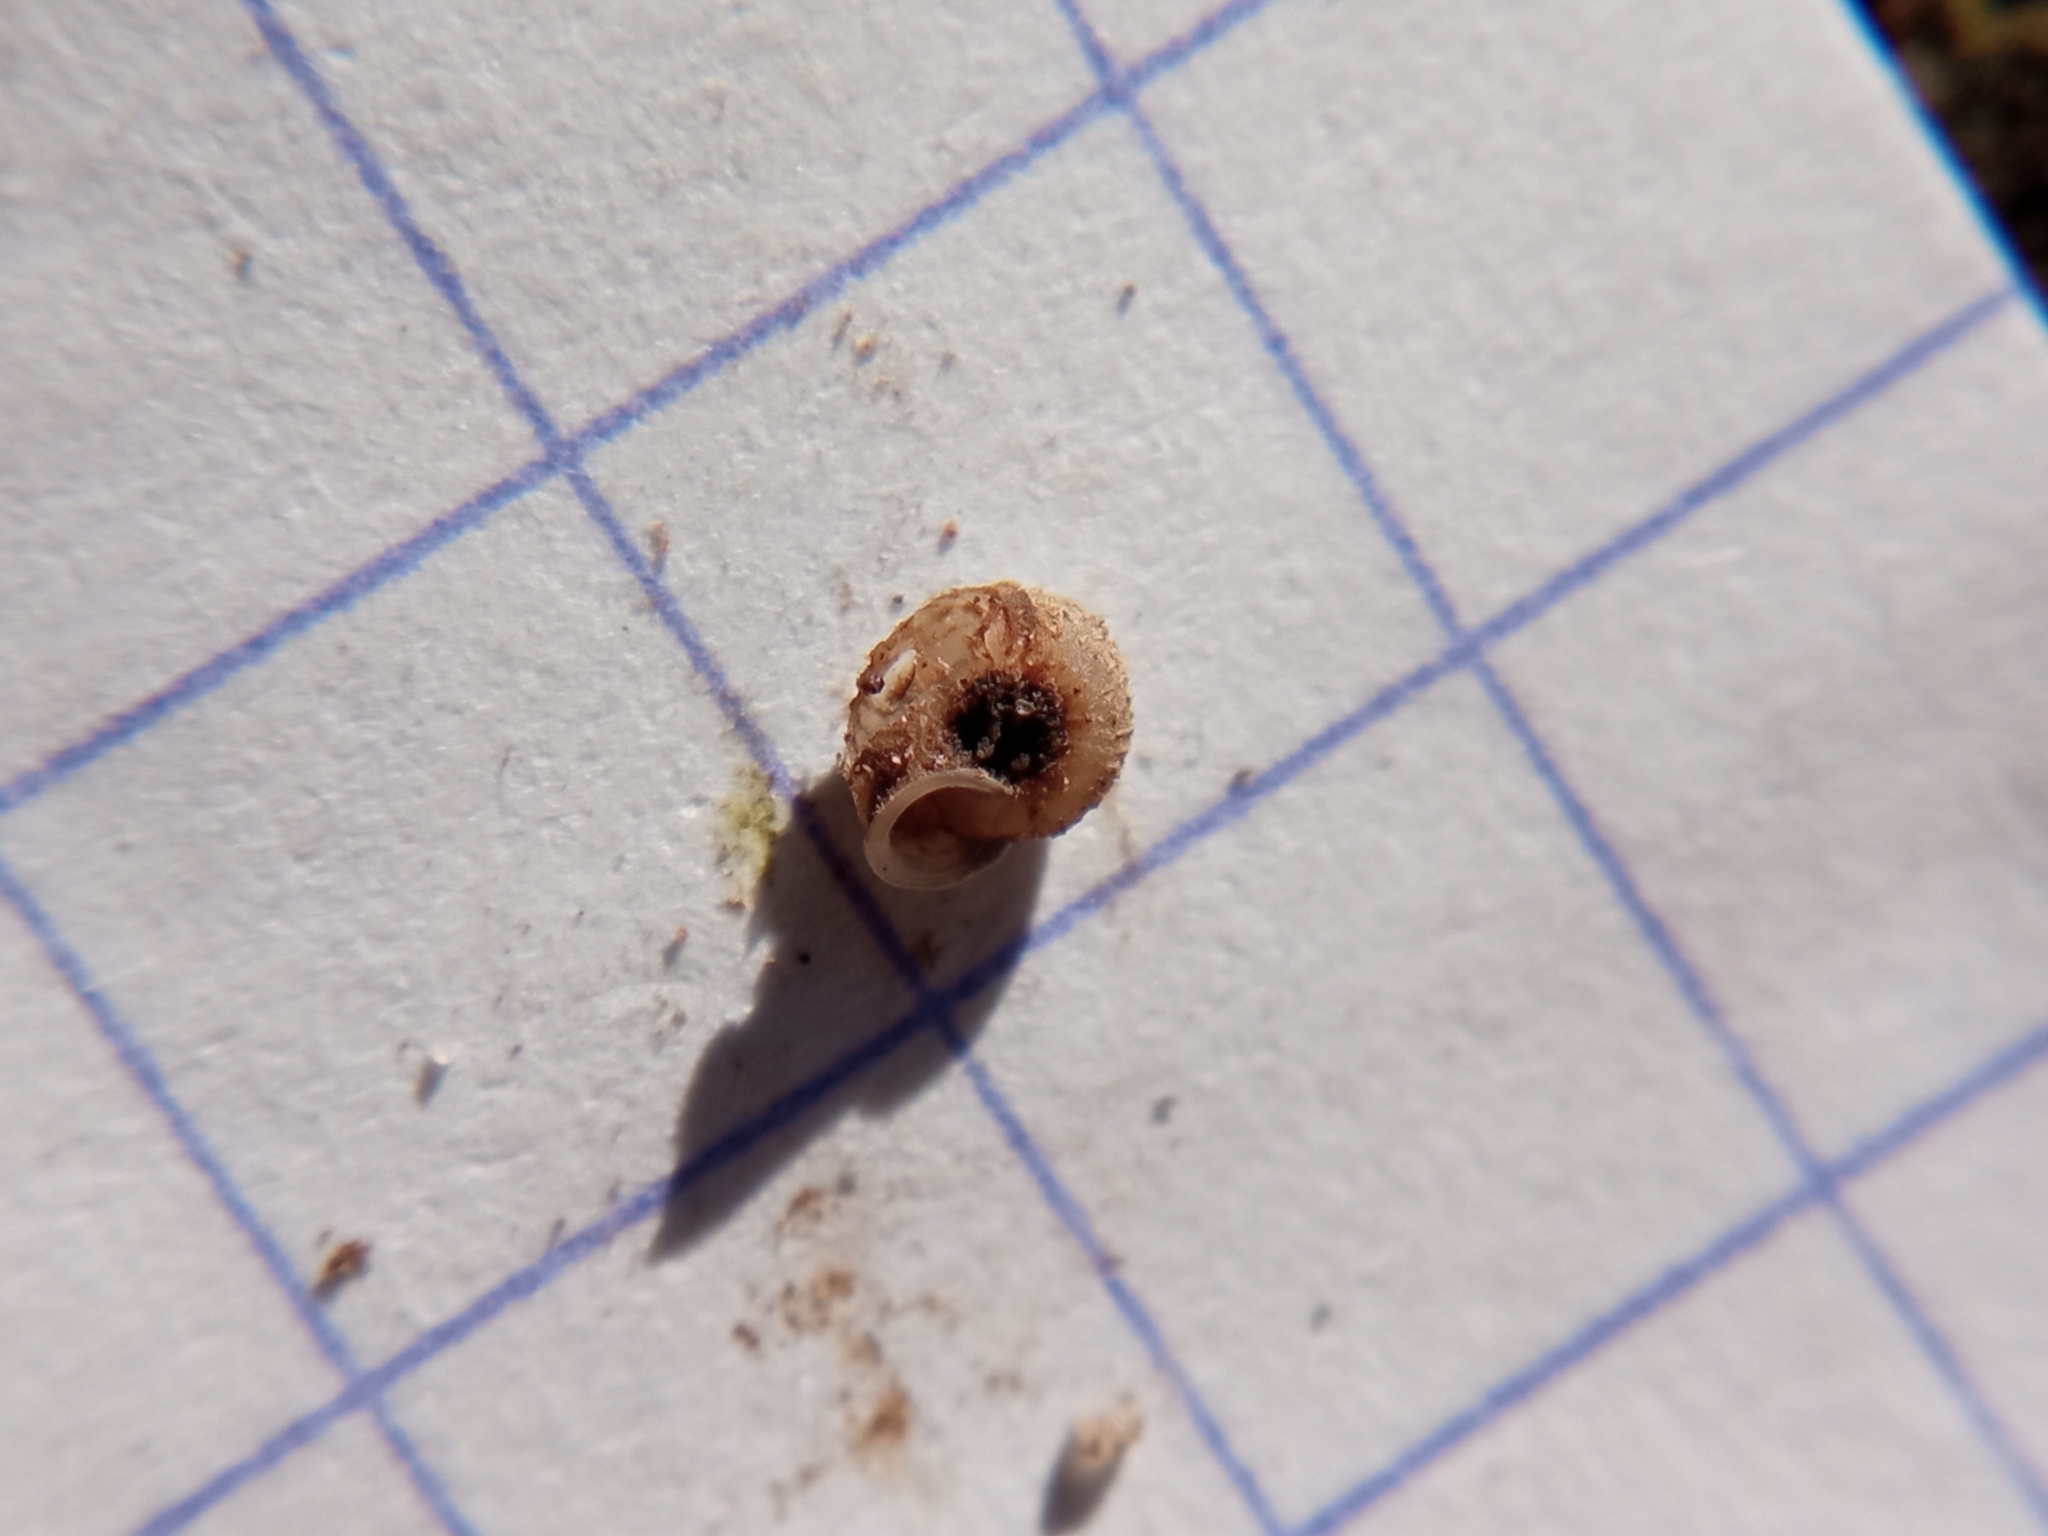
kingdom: Animalia
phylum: Mollusca
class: Gastropoda
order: Stylommatophora
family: Valloniidae
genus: Vallonia
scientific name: Vallonia costata
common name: Ribbed grass snail
